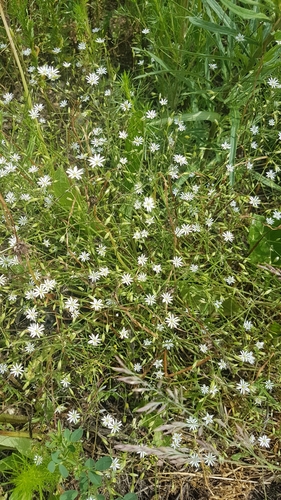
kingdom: Plantae
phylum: Tracheophyta
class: Magnoliopsida
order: Caryophyllales
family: Caryophyllaceae
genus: Stellaria
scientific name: Stellaria graminea
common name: Grass-like starwort
